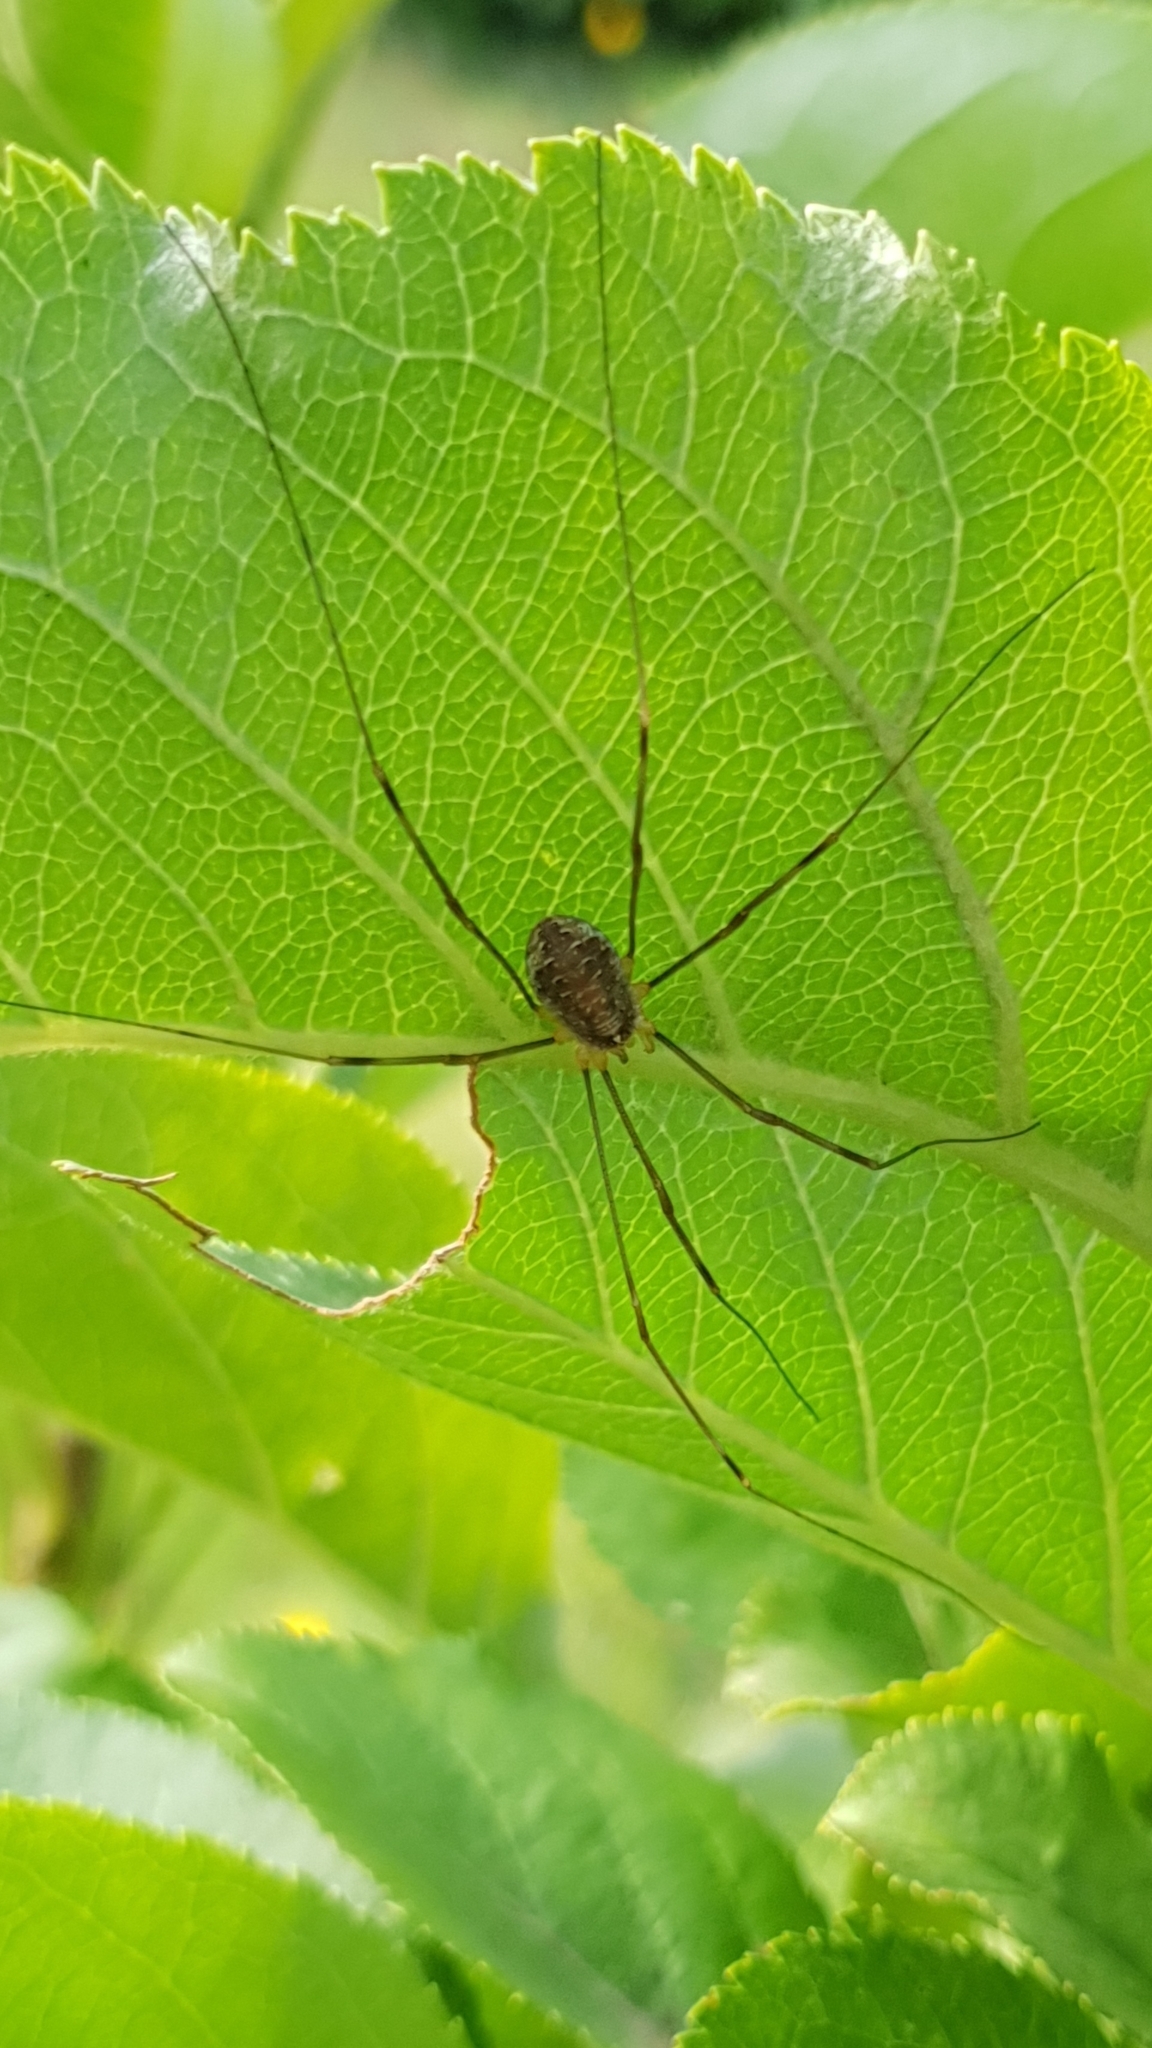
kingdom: Animalia
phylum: Arthropoda
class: Arachnida
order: Opiliones
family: Phalangiidae
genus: Opilio
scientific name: Opilio canestrinii
